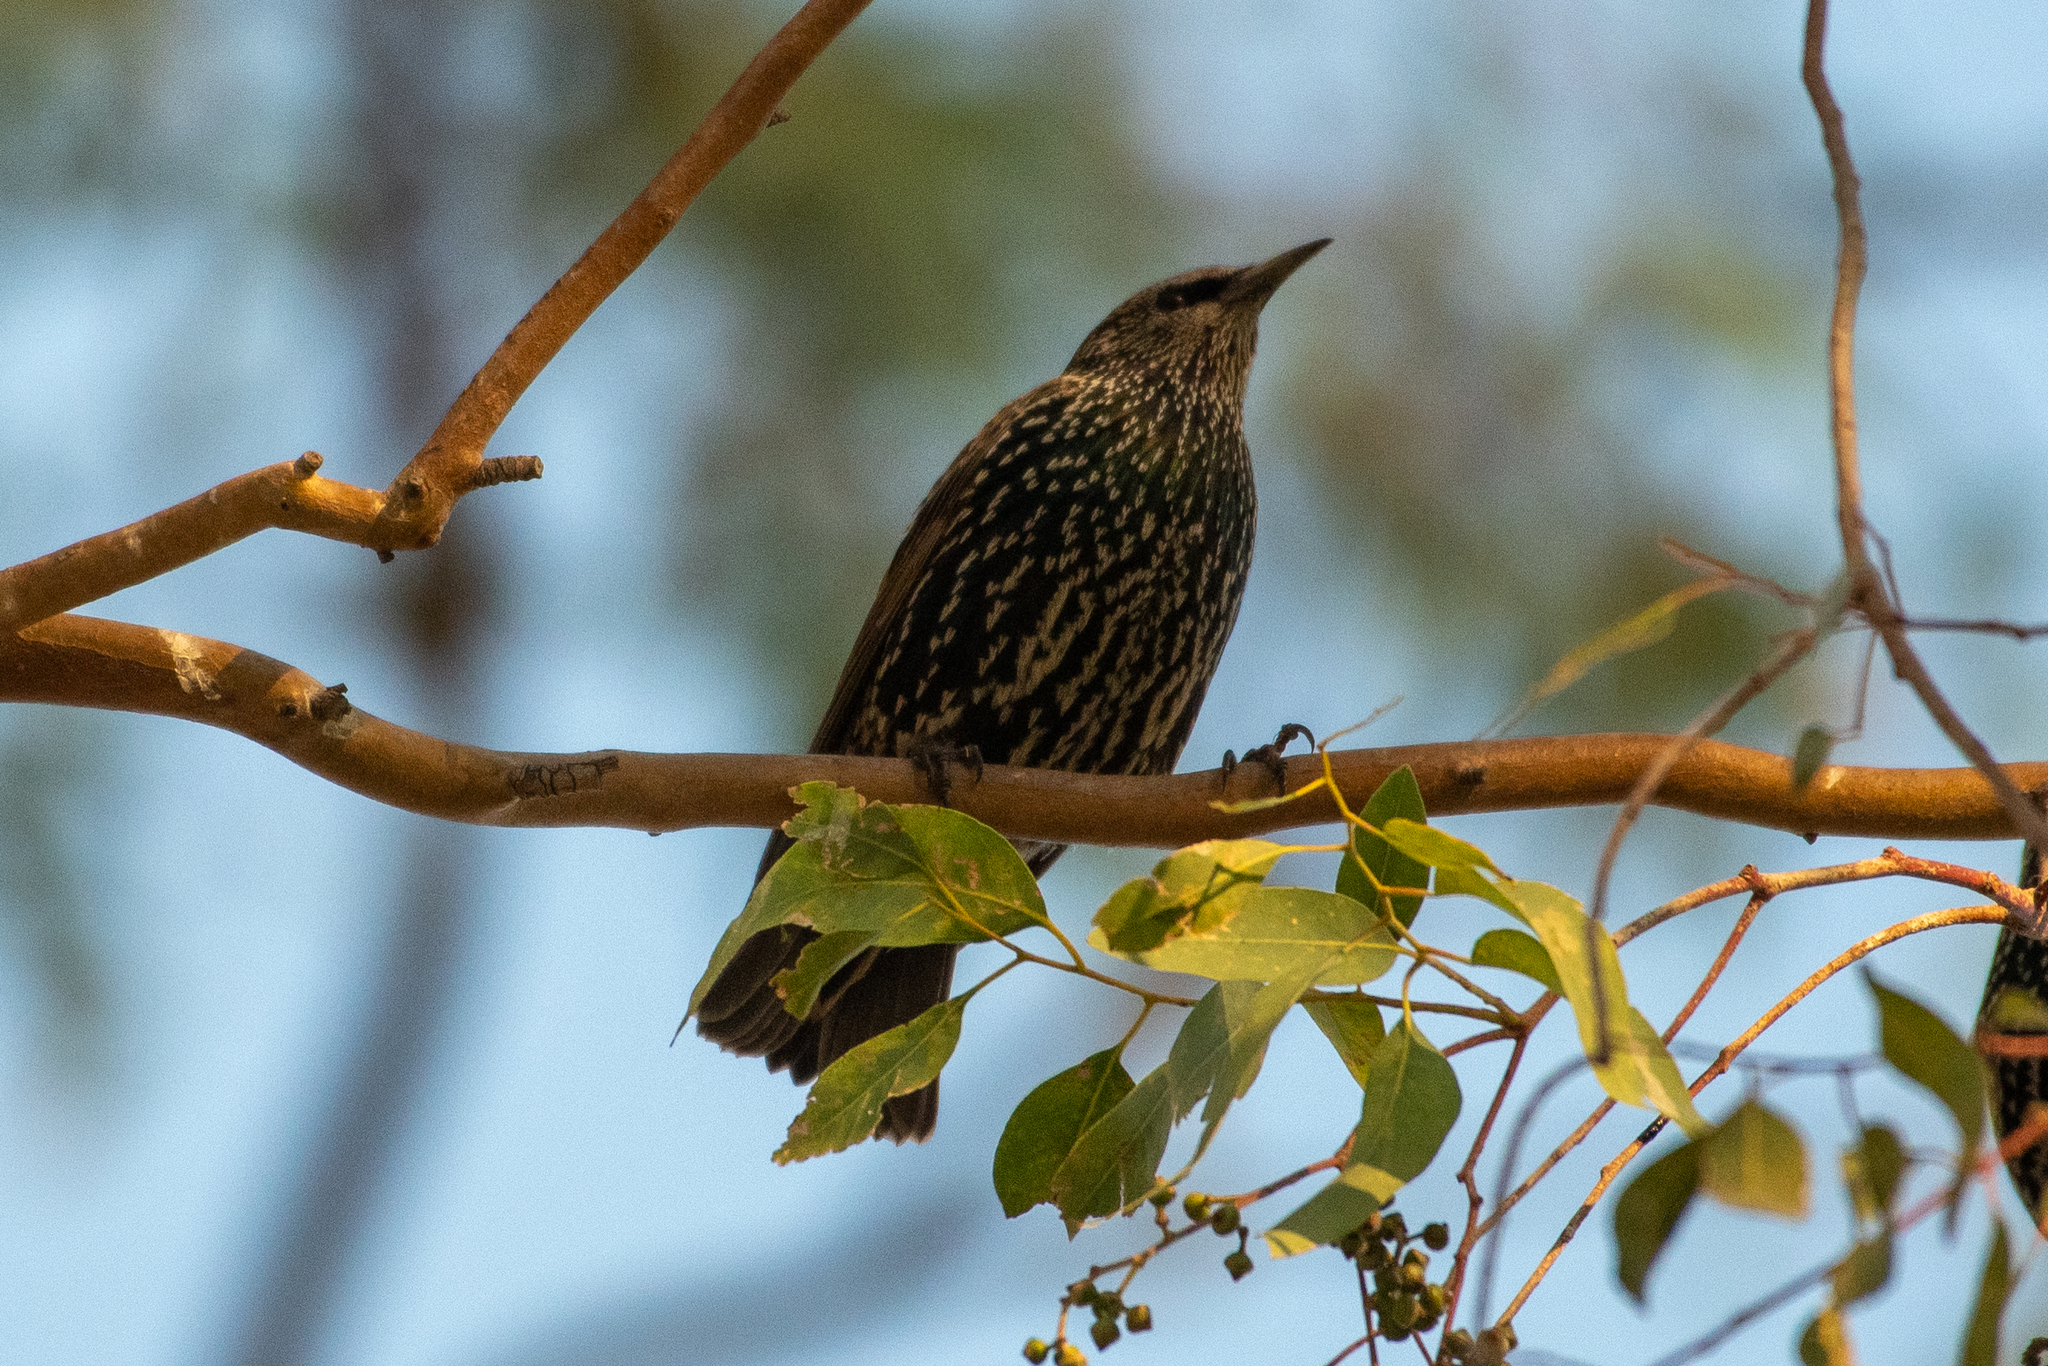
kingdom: Animalia
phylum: Chordata
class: Aves
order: Passeriformes
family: Sturnidae
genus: Sturnus
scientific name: Sturnus vulgaris
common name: Common starling
